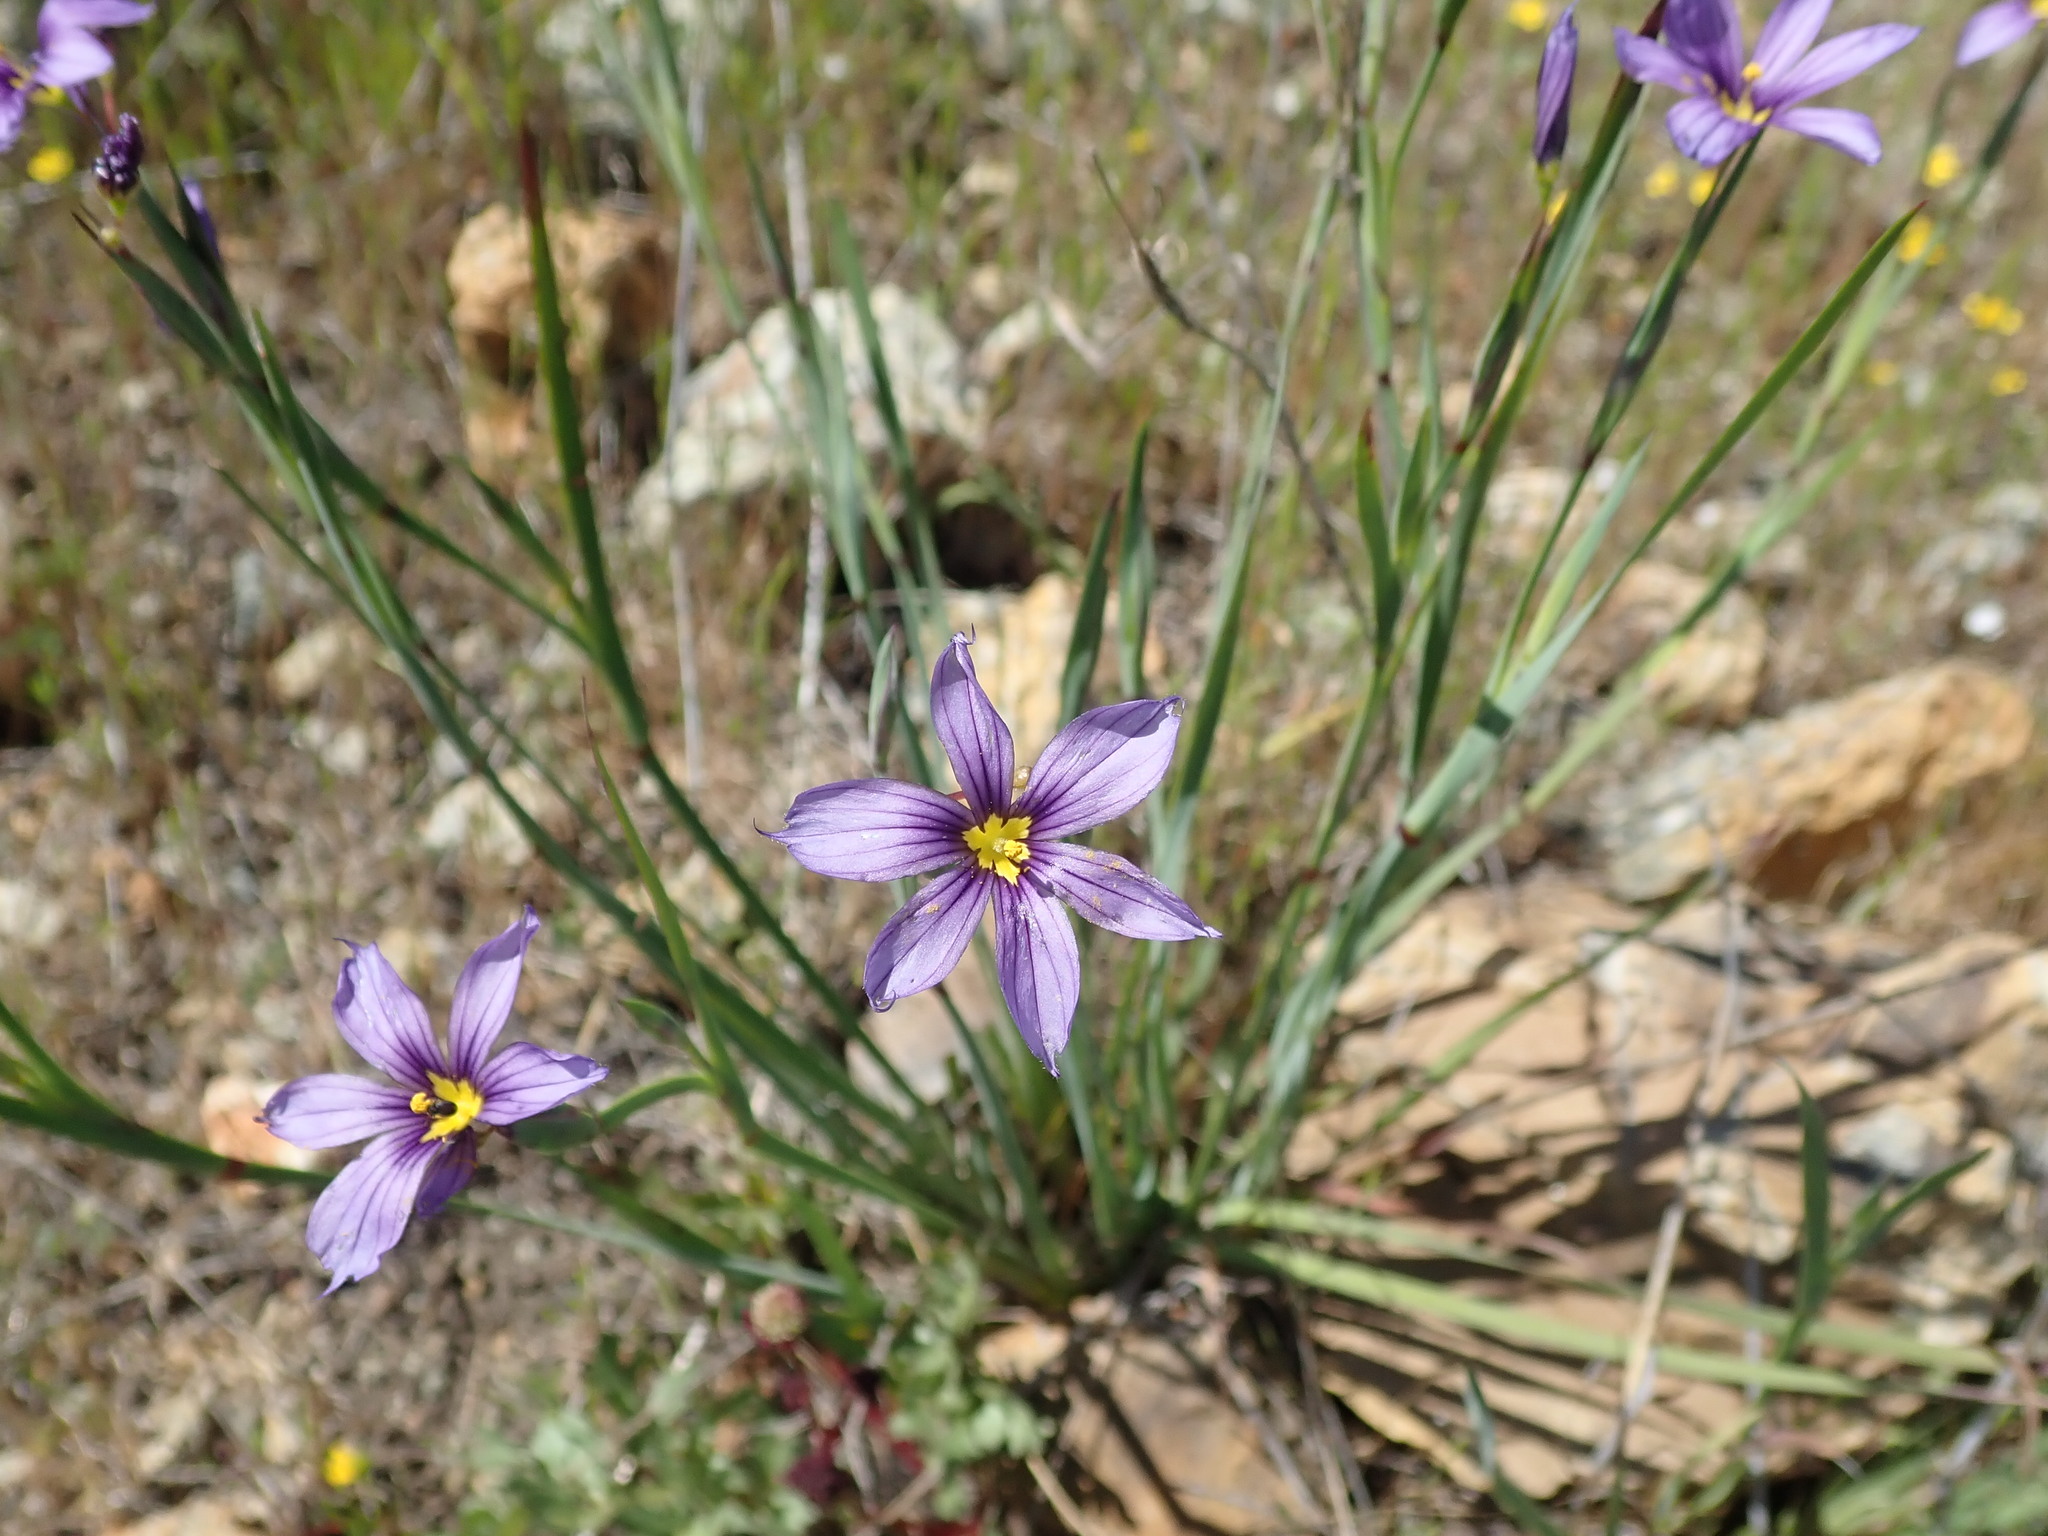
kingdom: Plantae
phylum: Tracheophyta
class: Liliopsida
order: Asparagales
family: Iridaceae
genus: Sisyrinchium
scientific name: Sisyrinchium bellum
